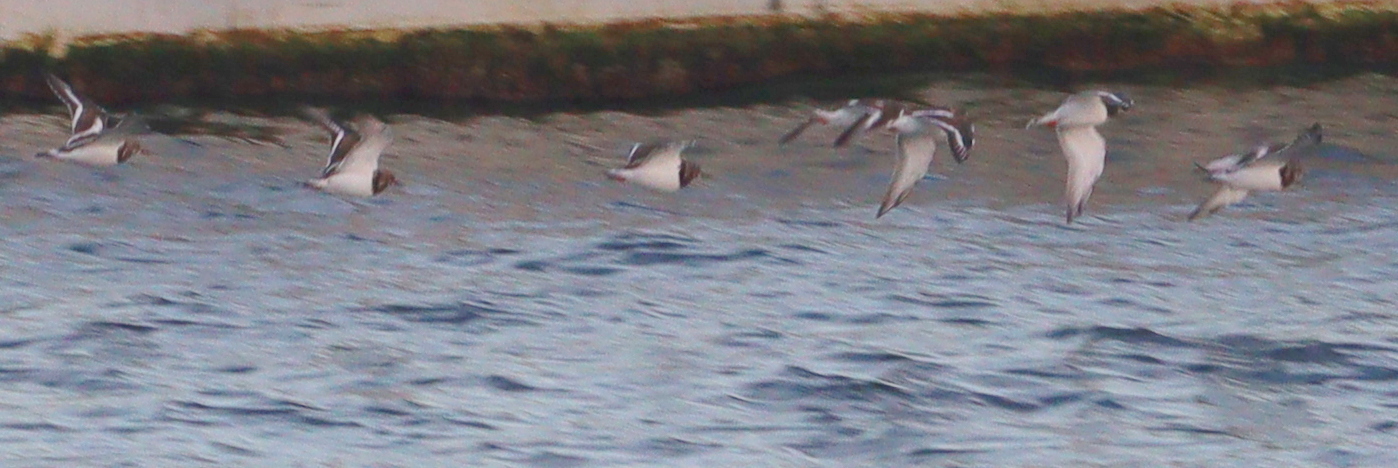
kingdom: Animalia
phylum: Chordata
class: Aves
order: Charadriiformes
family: Scolopacidae
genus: Arenaria
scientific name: Arenaria interpres
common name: Ruddy turnstone
